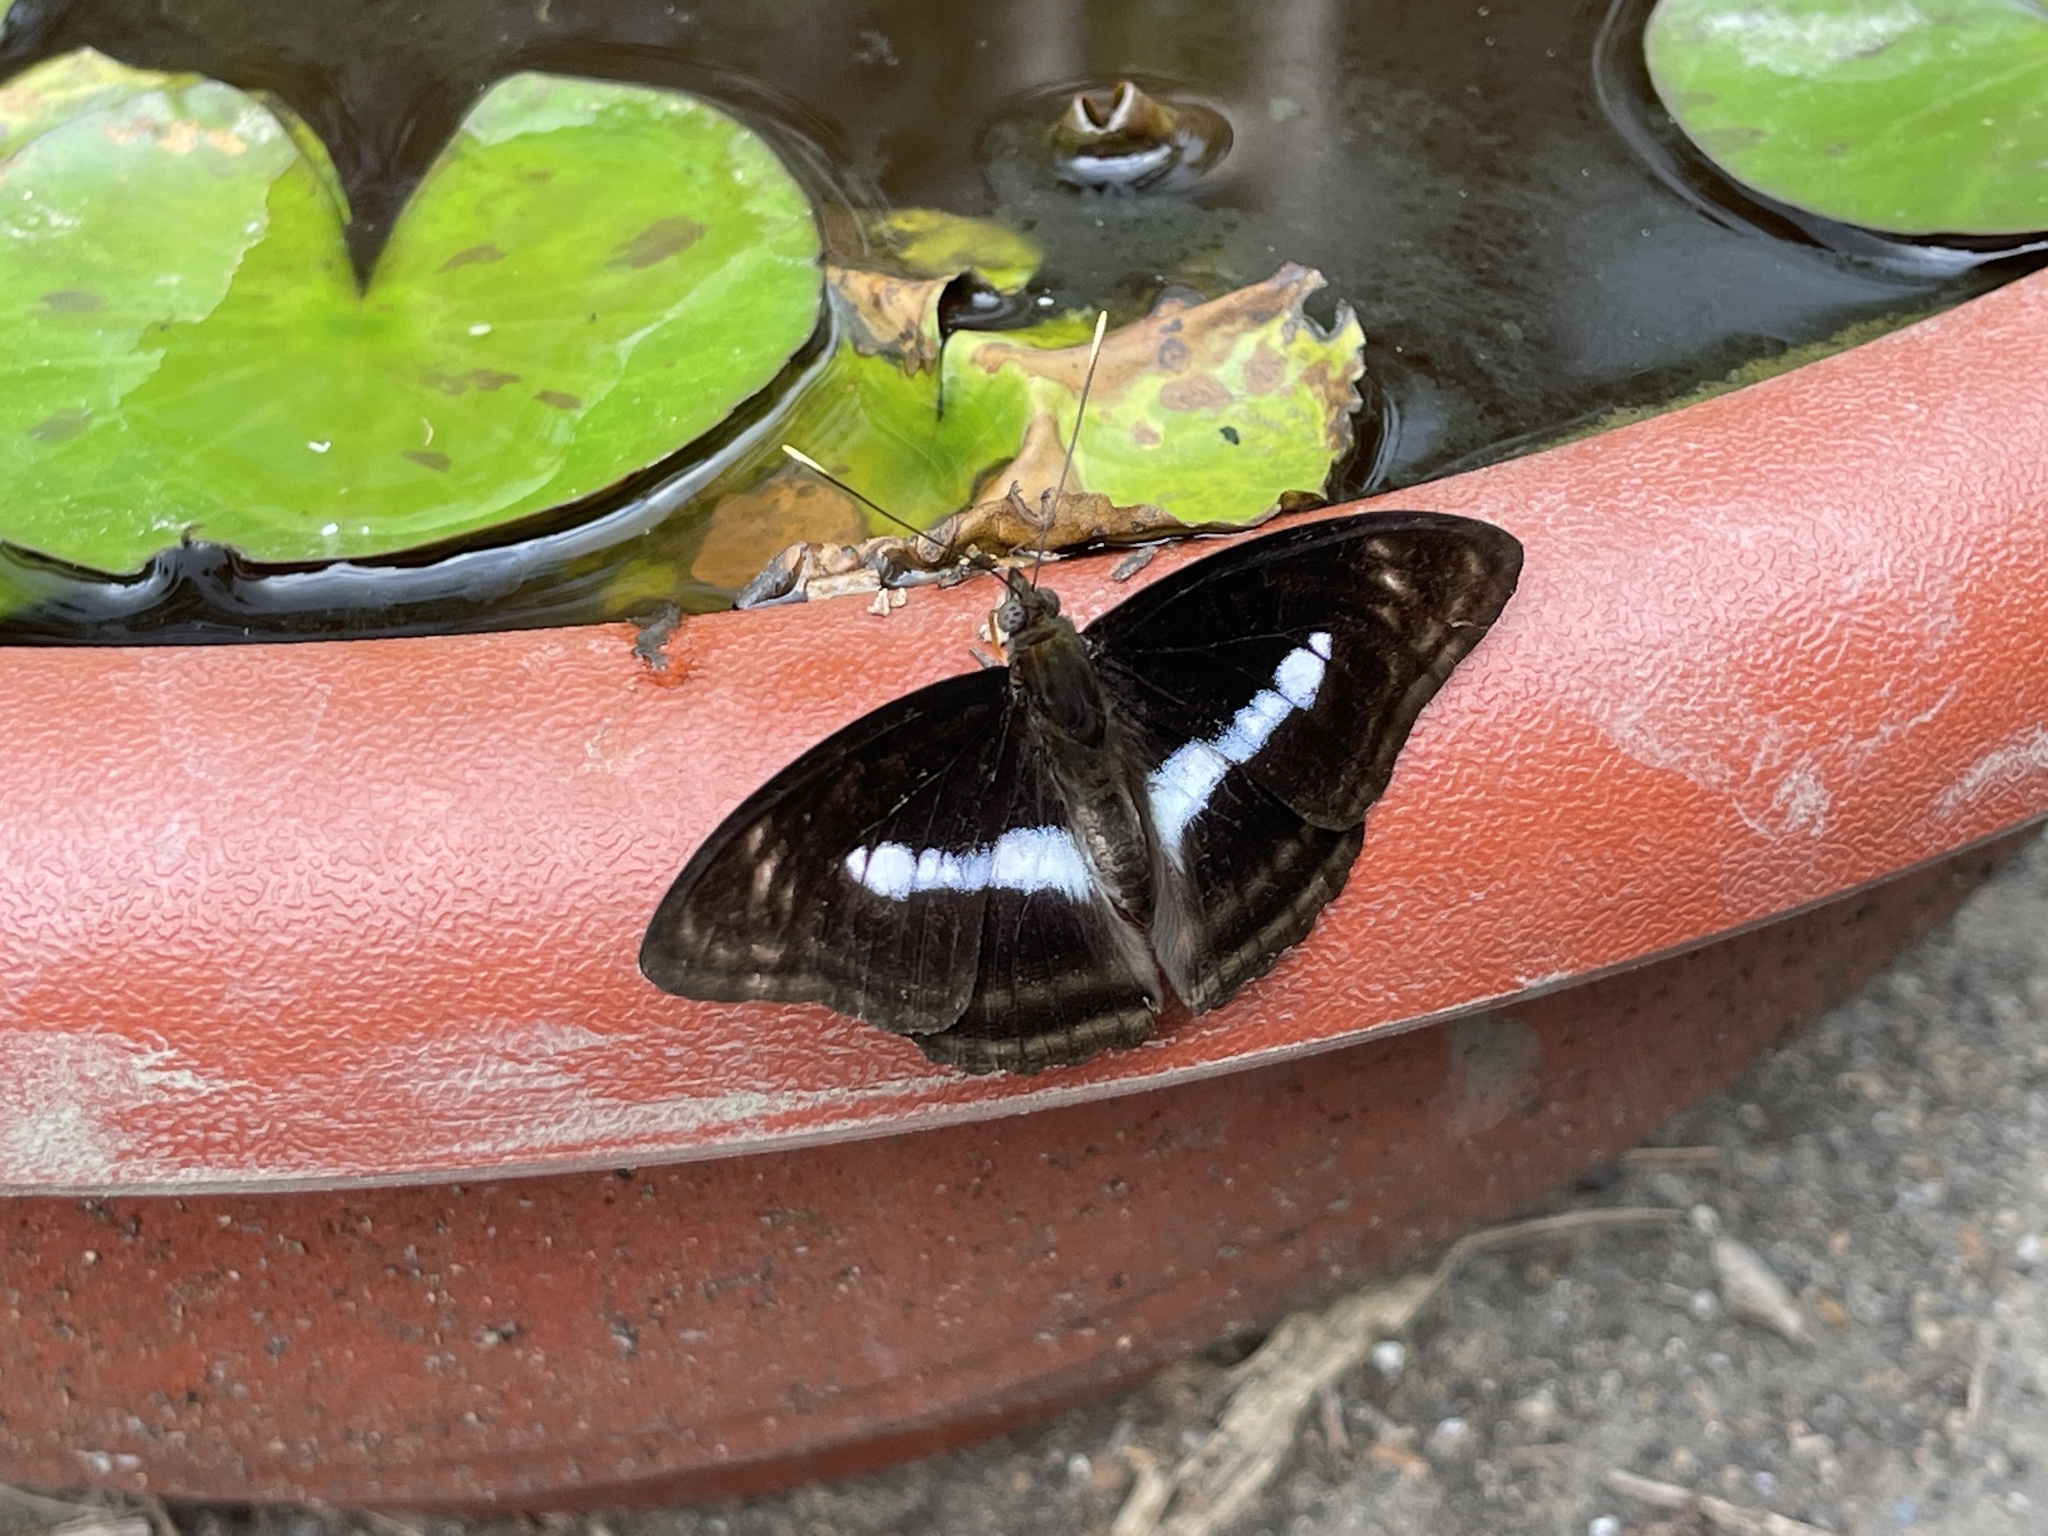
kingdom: Animalia
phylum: Arthropoda
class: Insecta
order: Lepidoptera
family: Nymphalidae
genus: Parathyma
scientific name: Parathyma selenophora
